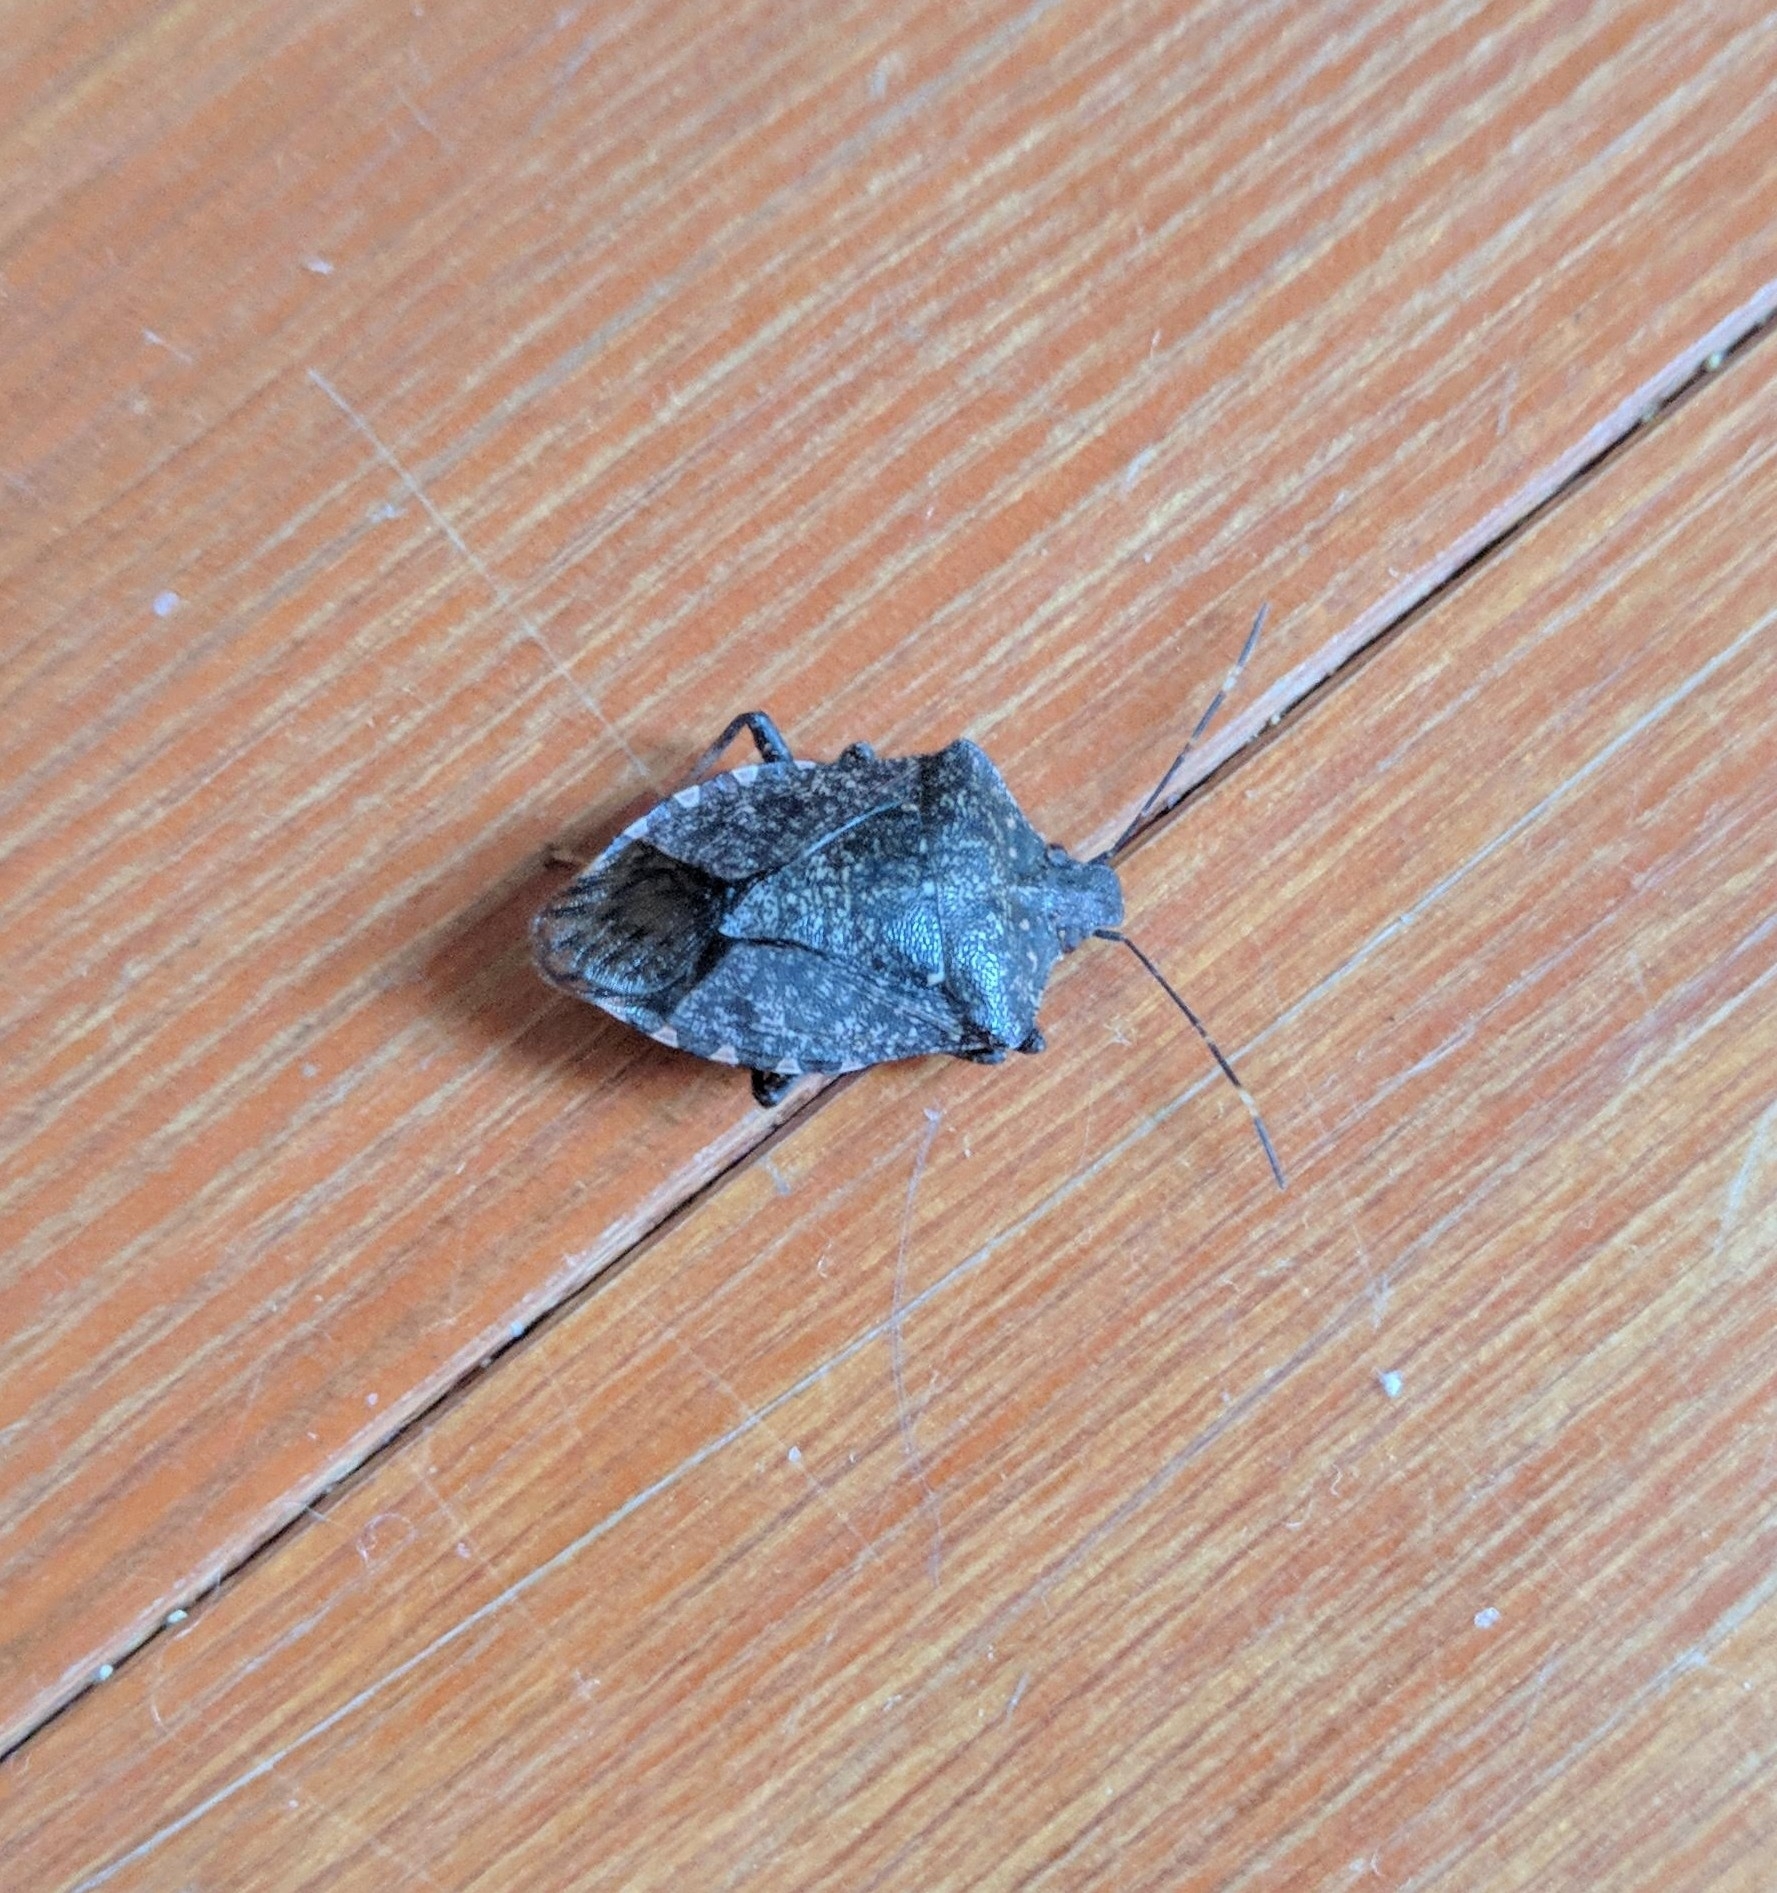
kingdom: Animalia
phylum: Arthropoda
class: Insecta
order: Hemiptera
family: Pentatomidae
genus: Halyomorpha
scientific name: Halyomorpha halys
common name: Brown marmorated stink bug
